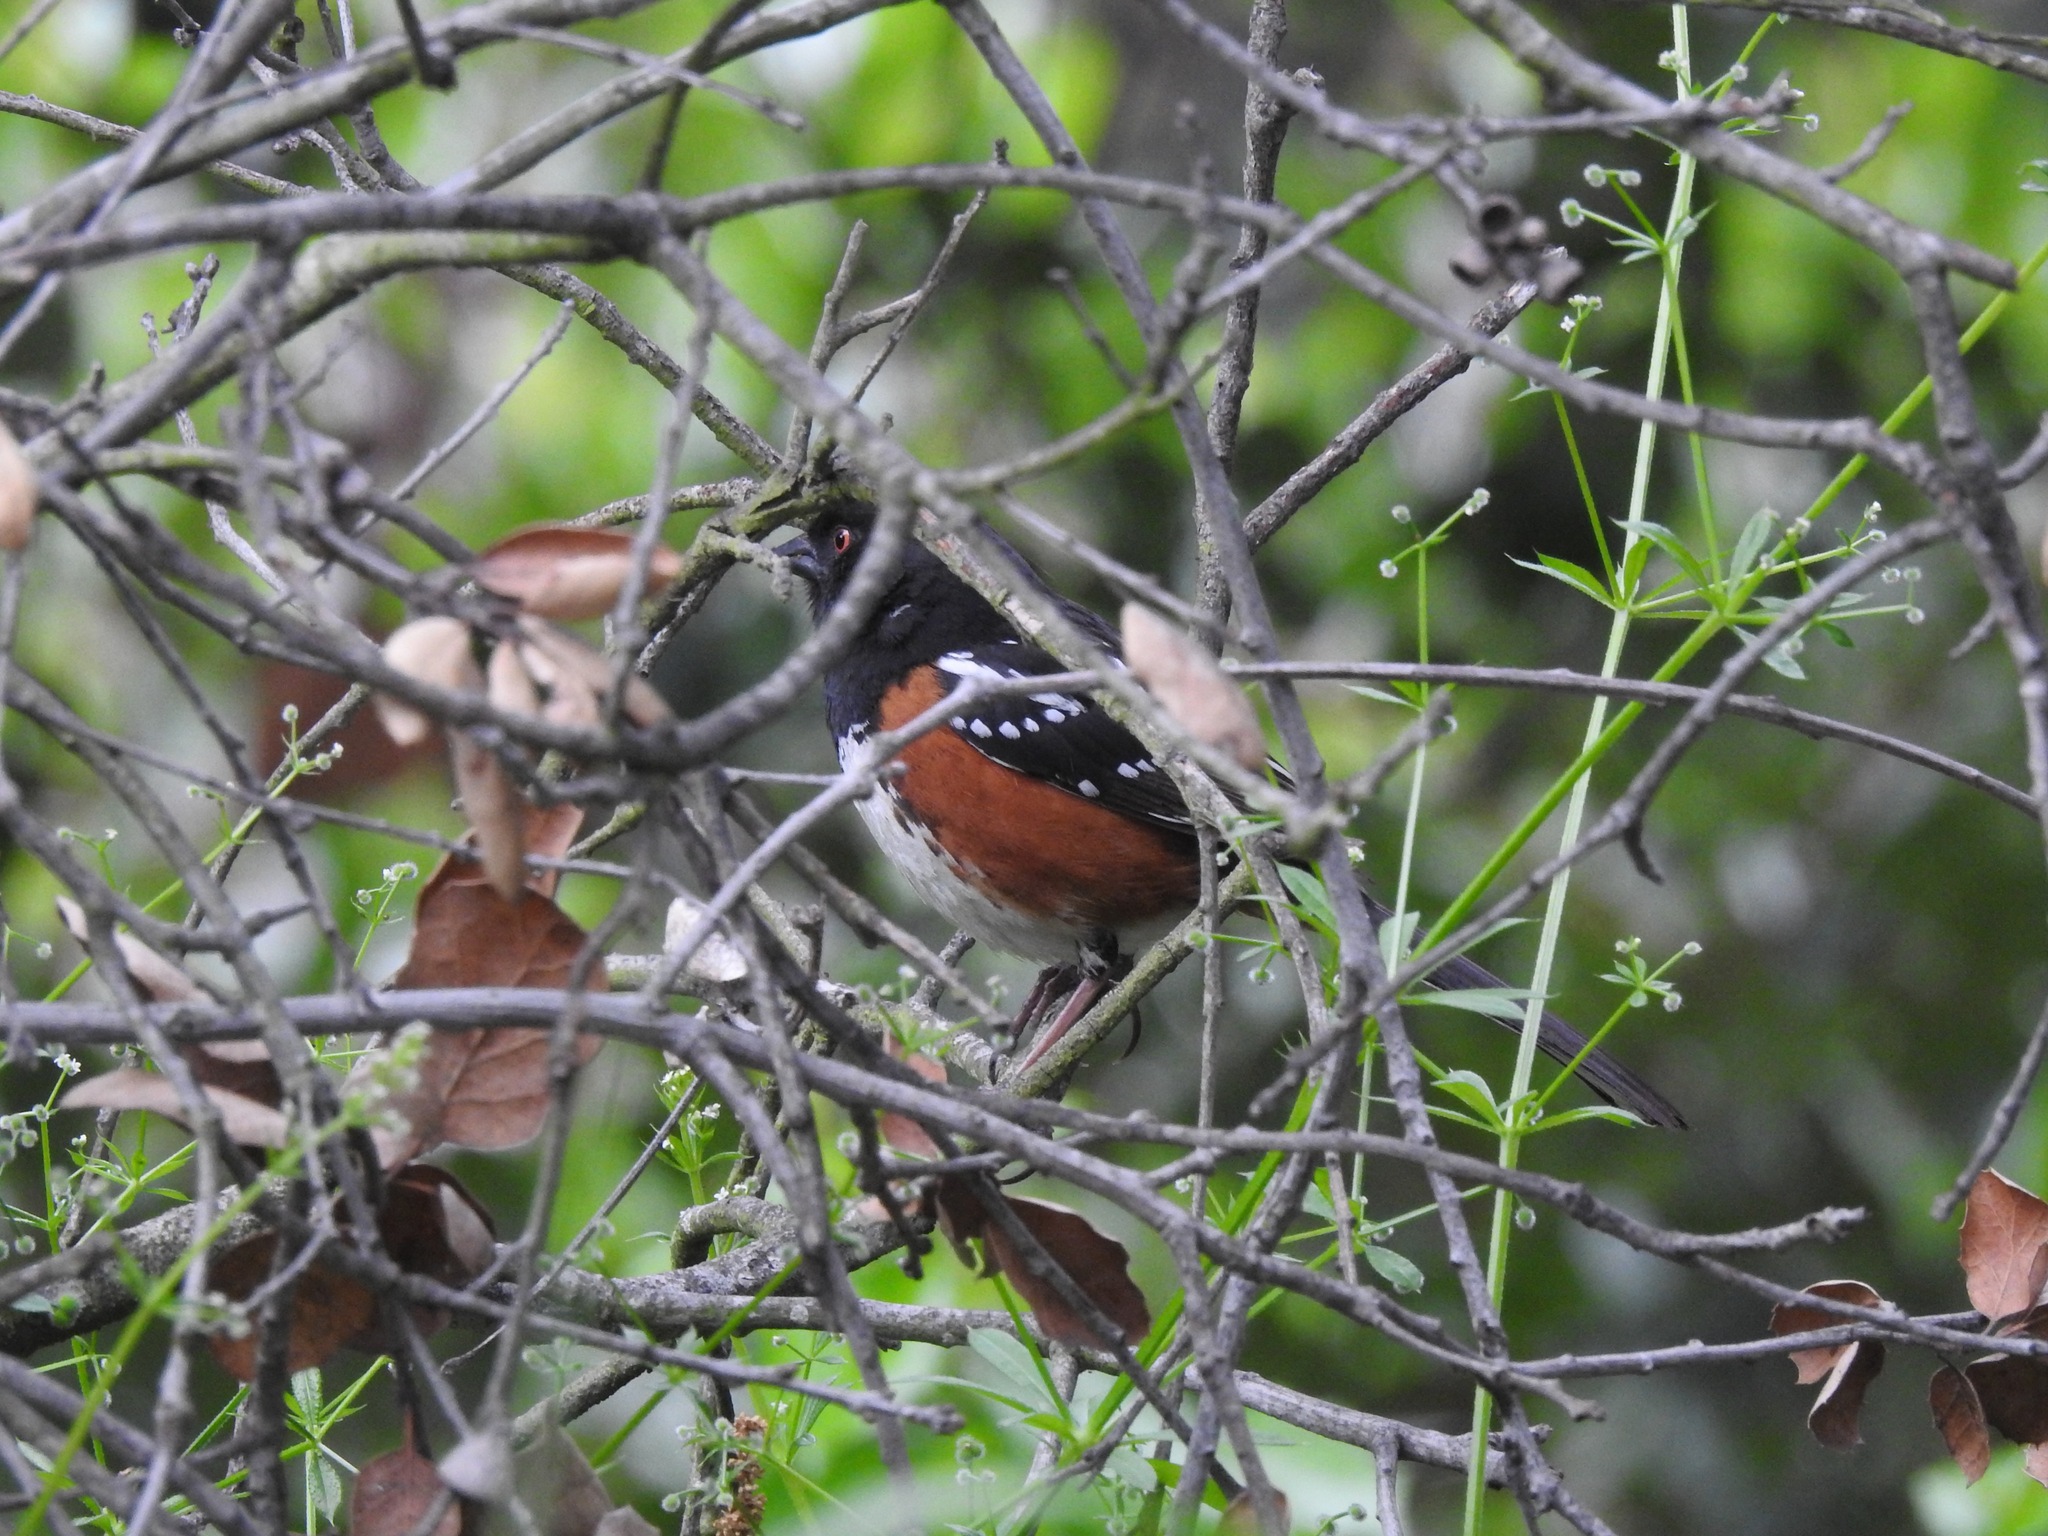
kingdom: Animalia
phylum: Chordata
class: Aves
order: Passeriformes
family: Passerellidae
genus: Pipilo
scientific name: Pipilo maculatus
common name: Spotted towhee
